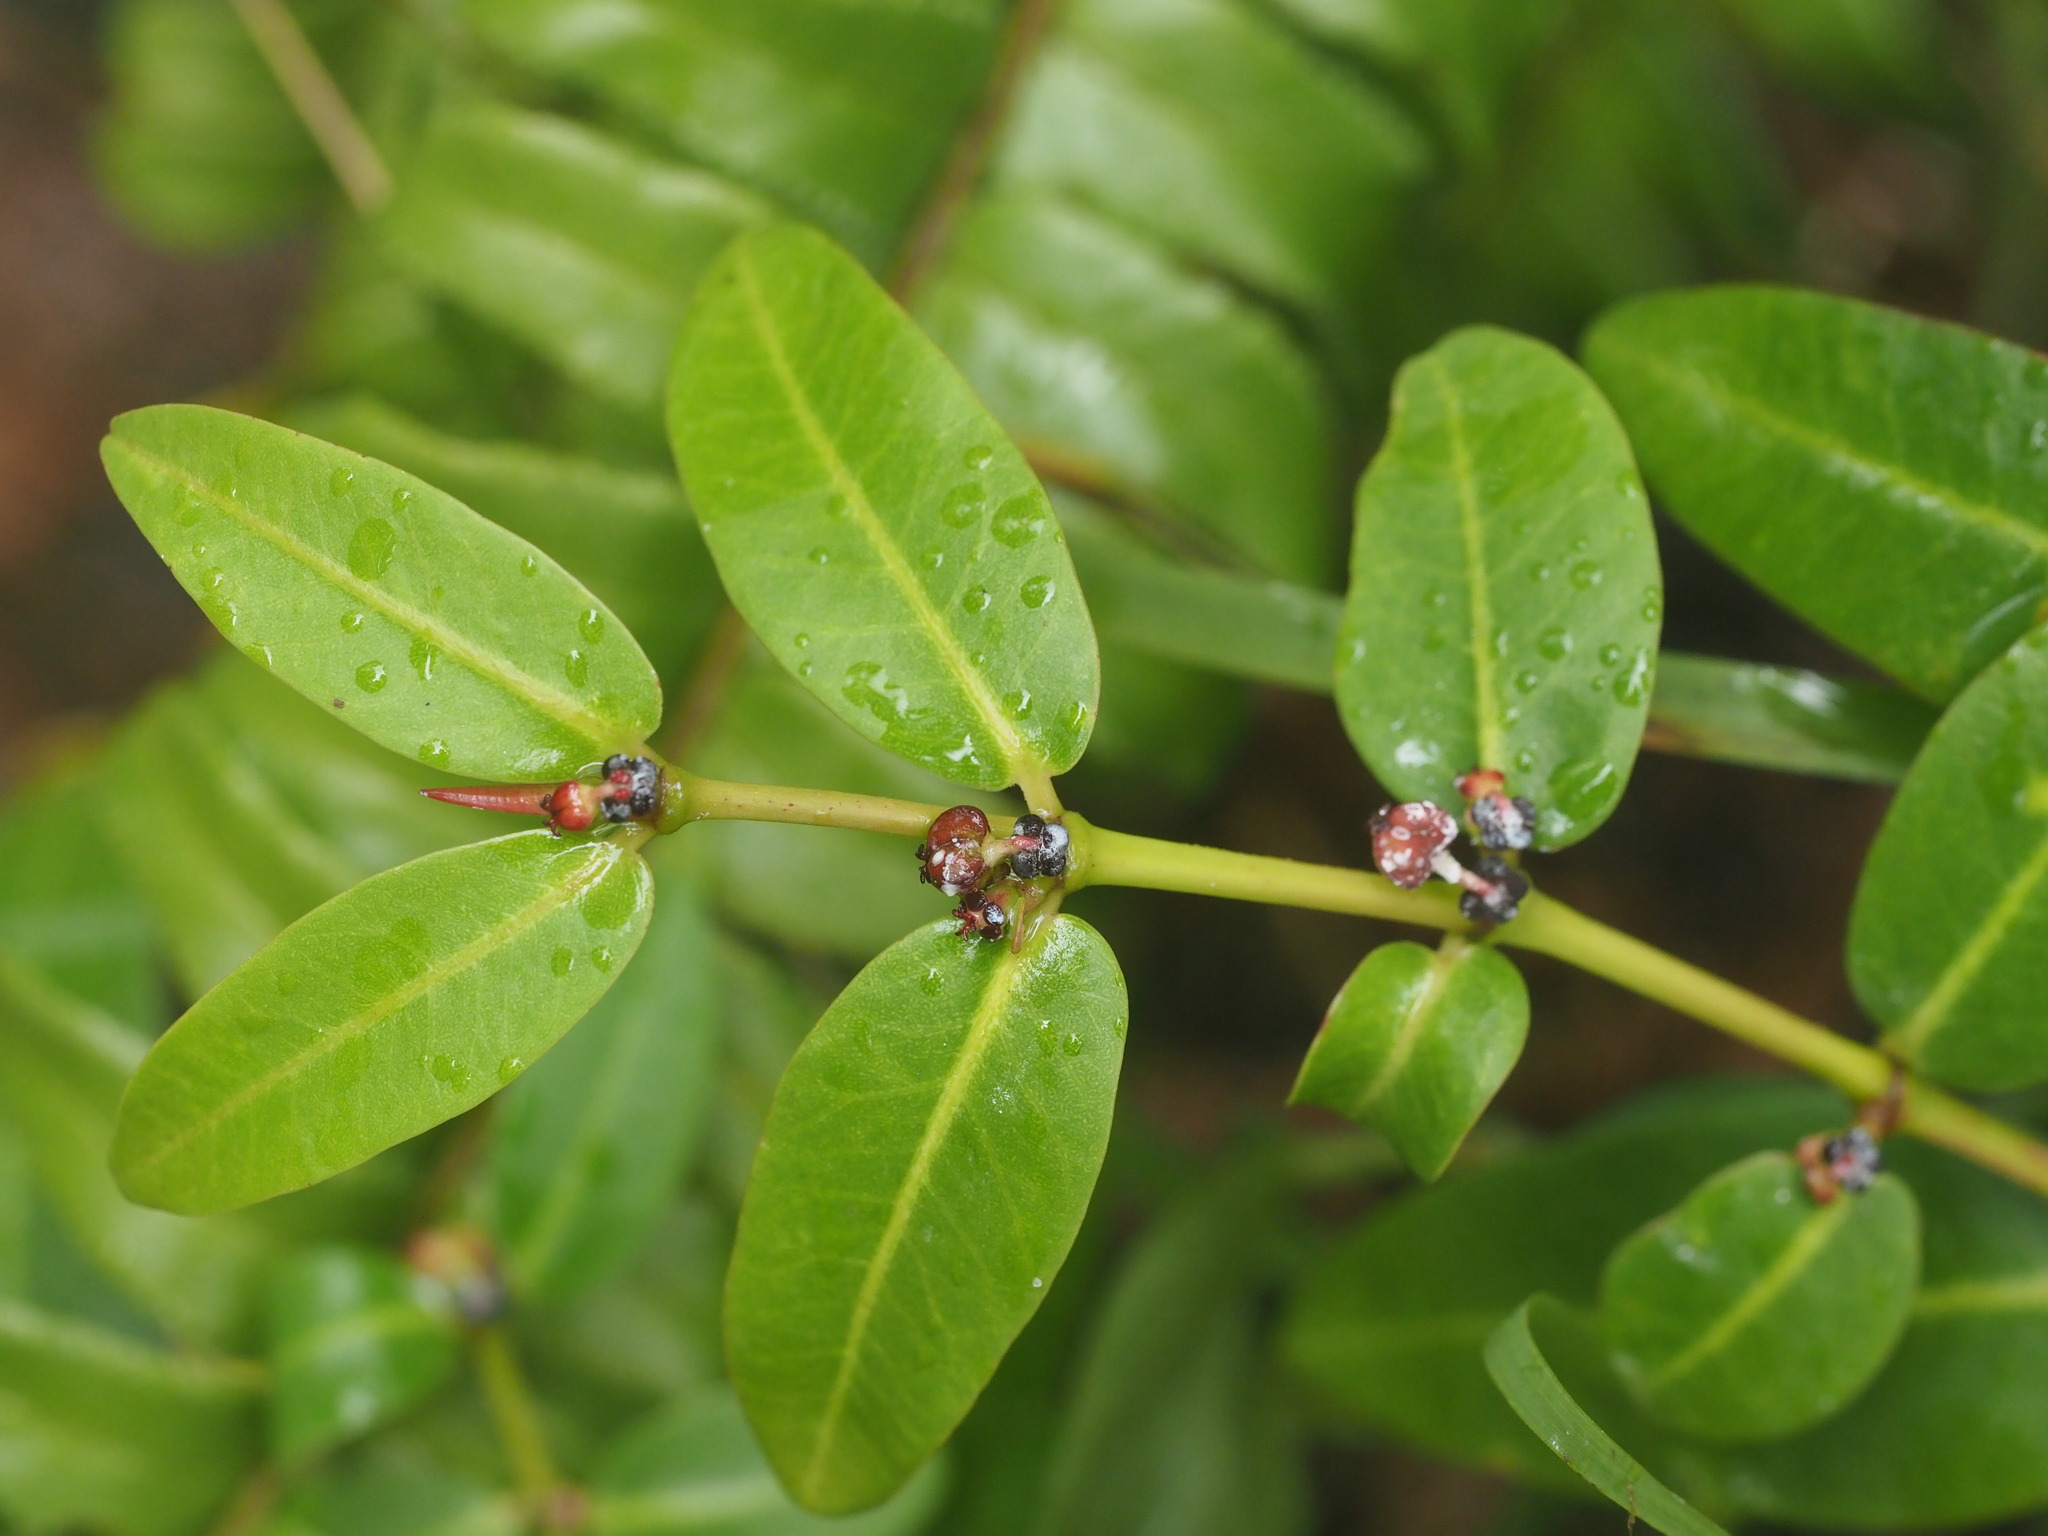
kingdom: Plantae
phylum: Tracheophyta
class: Magnoliopsida
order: Malpighiales
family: Euphorbiaceae
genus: Euphorbia
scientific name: Euphorbia multiformis
